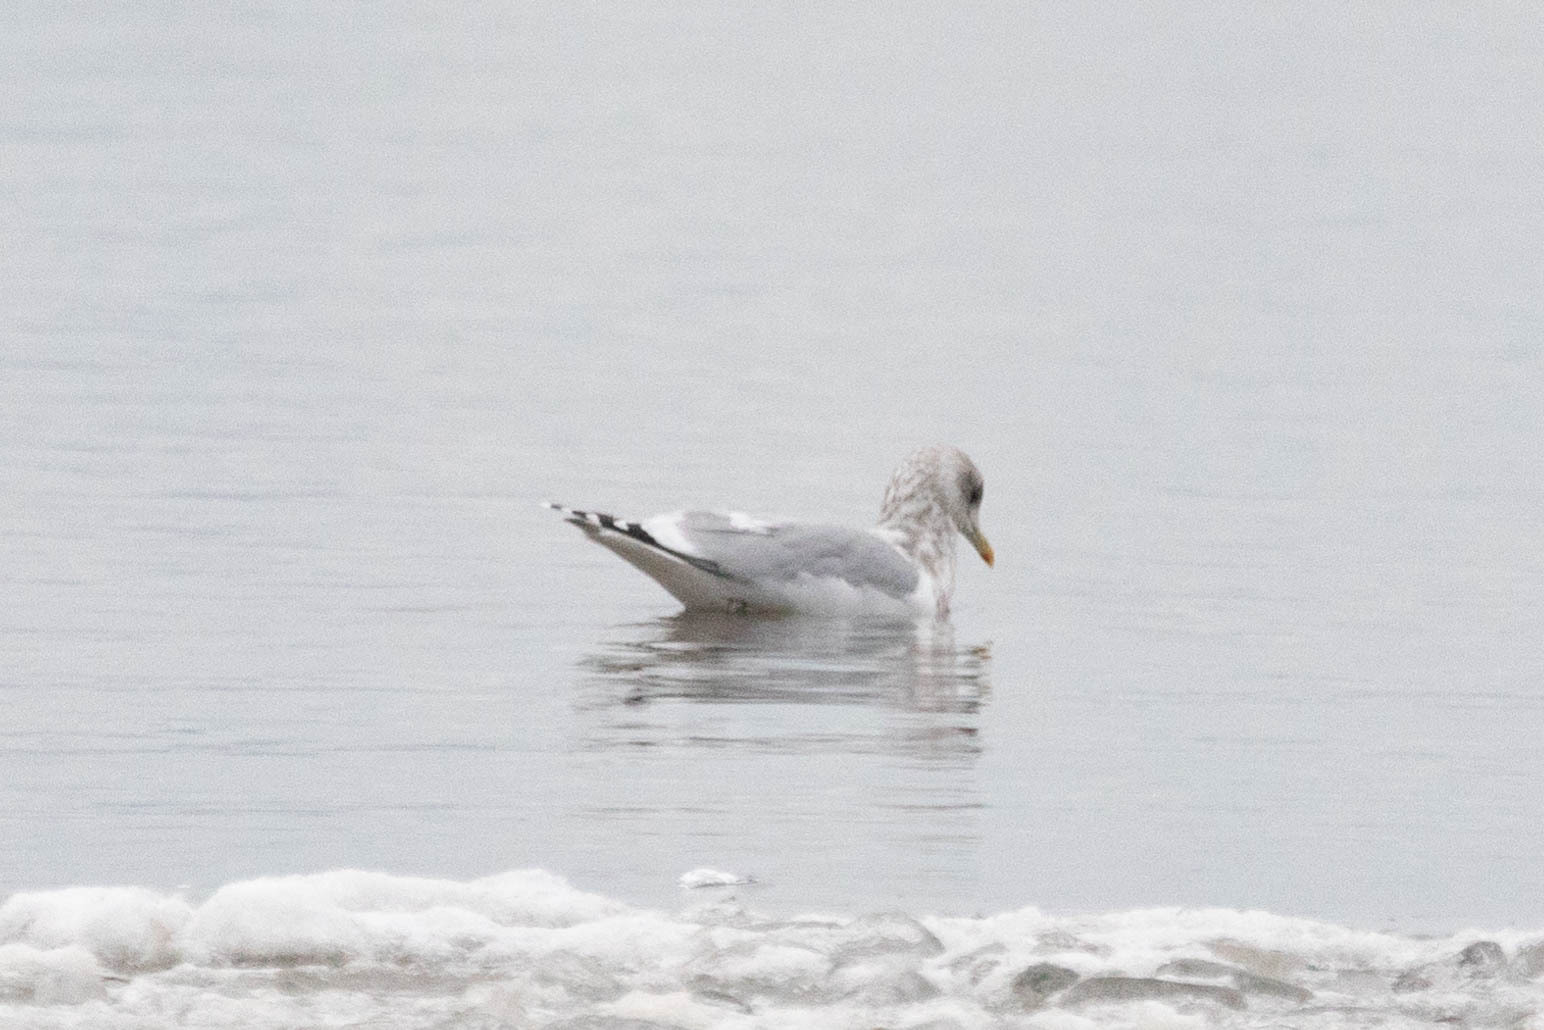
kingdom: Animalia
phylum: Chordata
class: Aves
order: Charadriiformes
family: Laridae
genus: Larus
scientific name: Larus glaucoides
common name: Iceland gull
